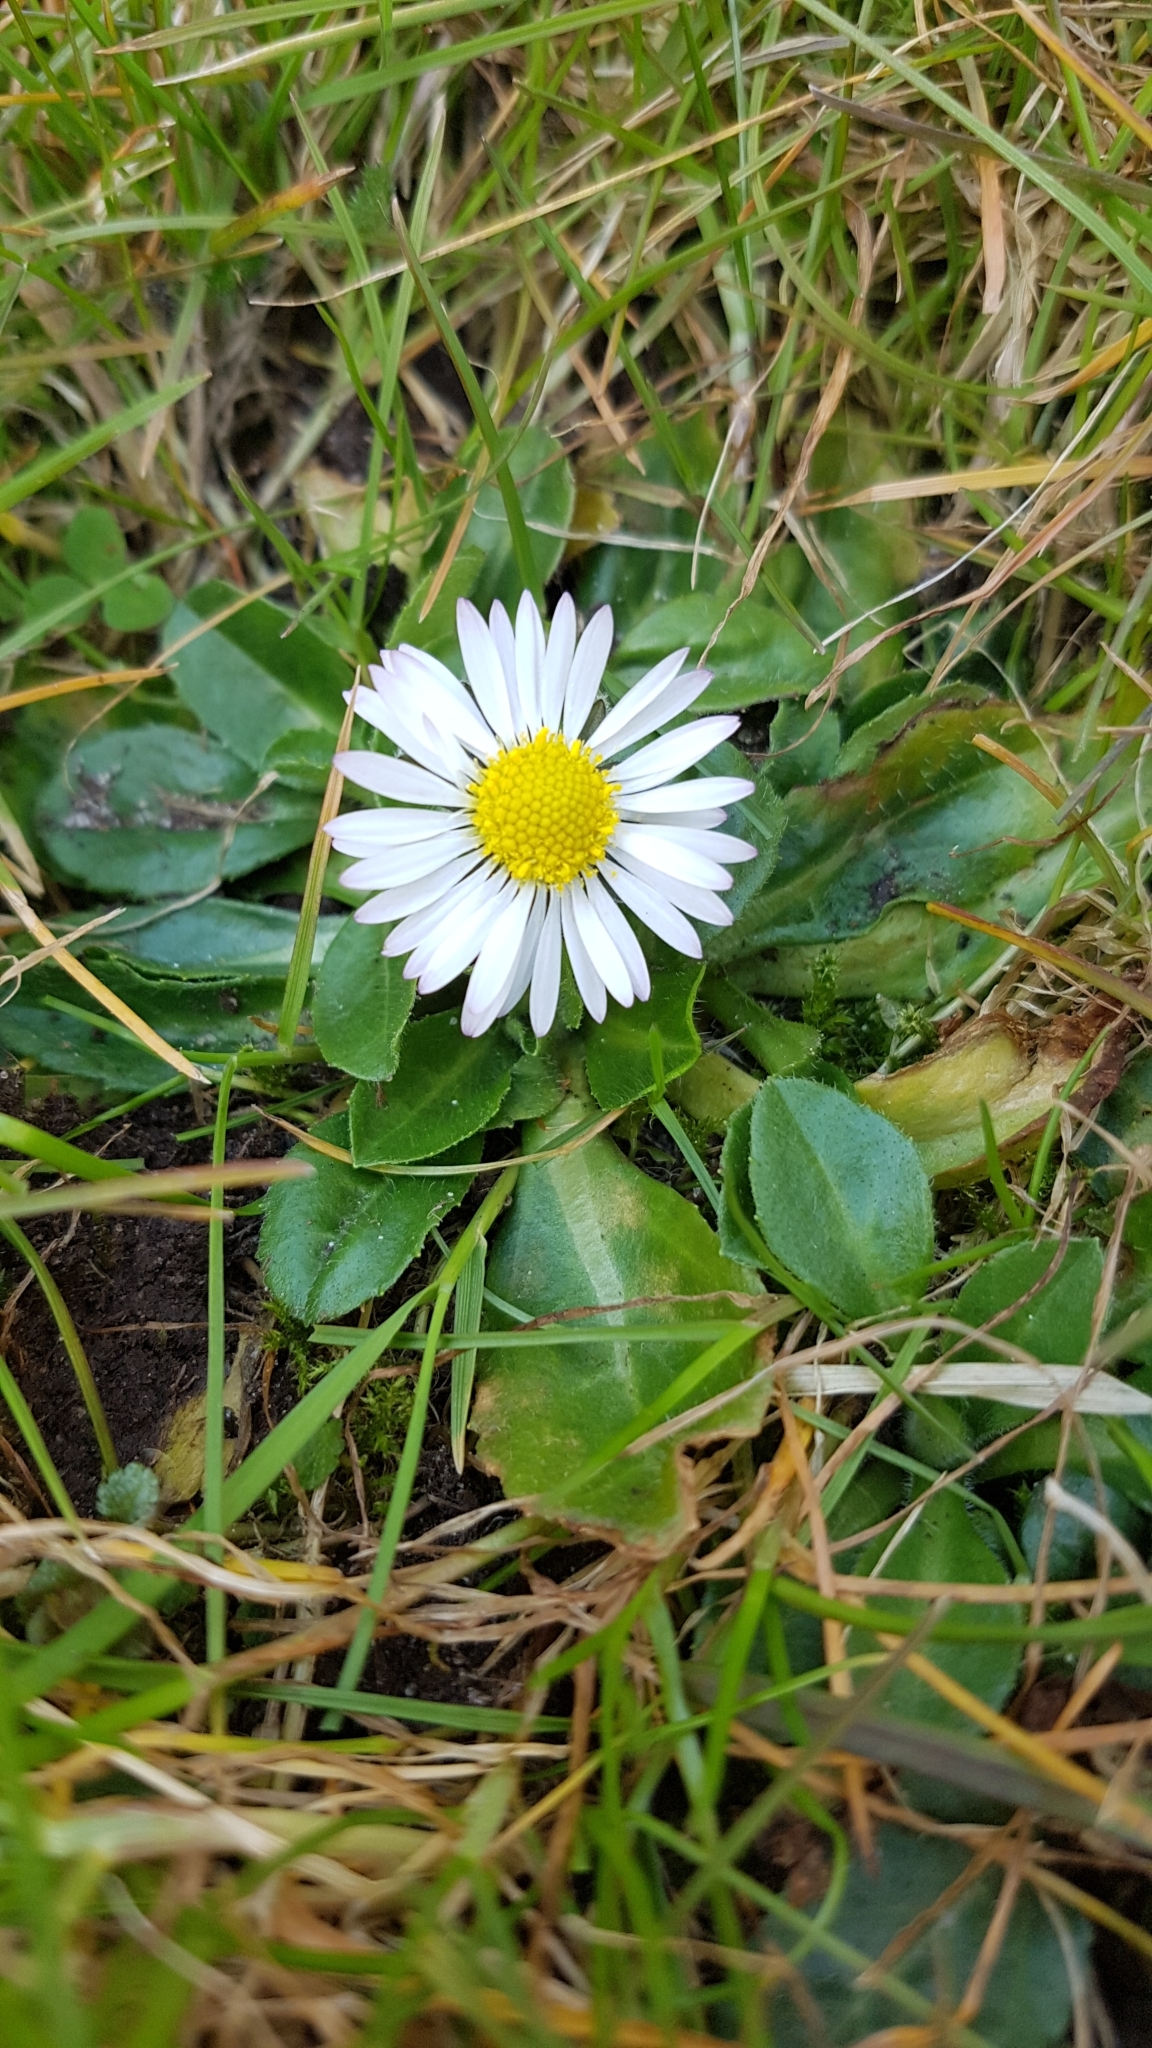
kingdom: Plantae
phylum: Tracheophyta
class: Magnoliopsida
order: Asterales
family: Asteraceae
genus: Bellis
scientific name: Bellis perennis
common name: Lawndaisy
